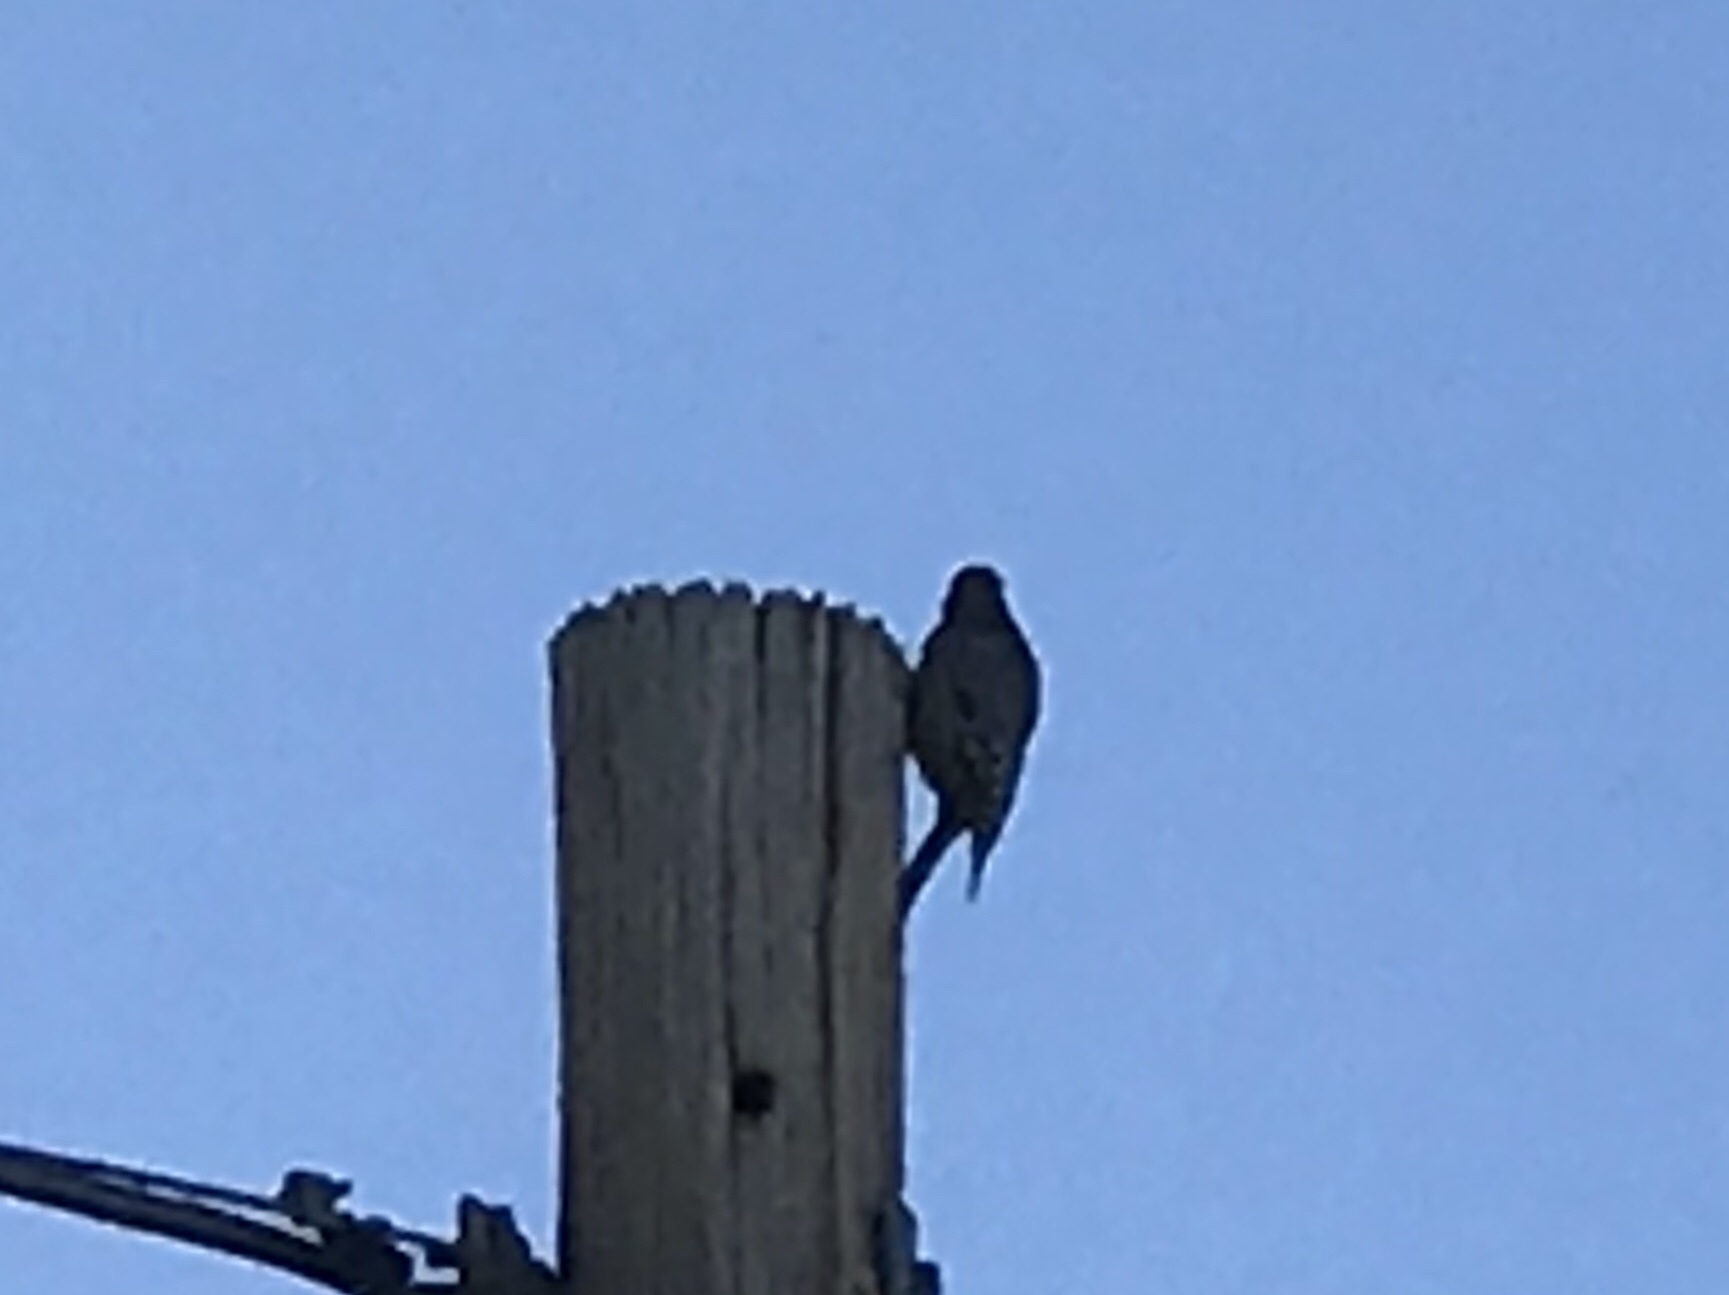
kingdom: Animalia
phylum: Chordata
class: Aves
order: Piciformes
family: Picidae
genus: Melanerpes
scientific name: Melanerpes uropygialis
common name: Gila woodpecker
